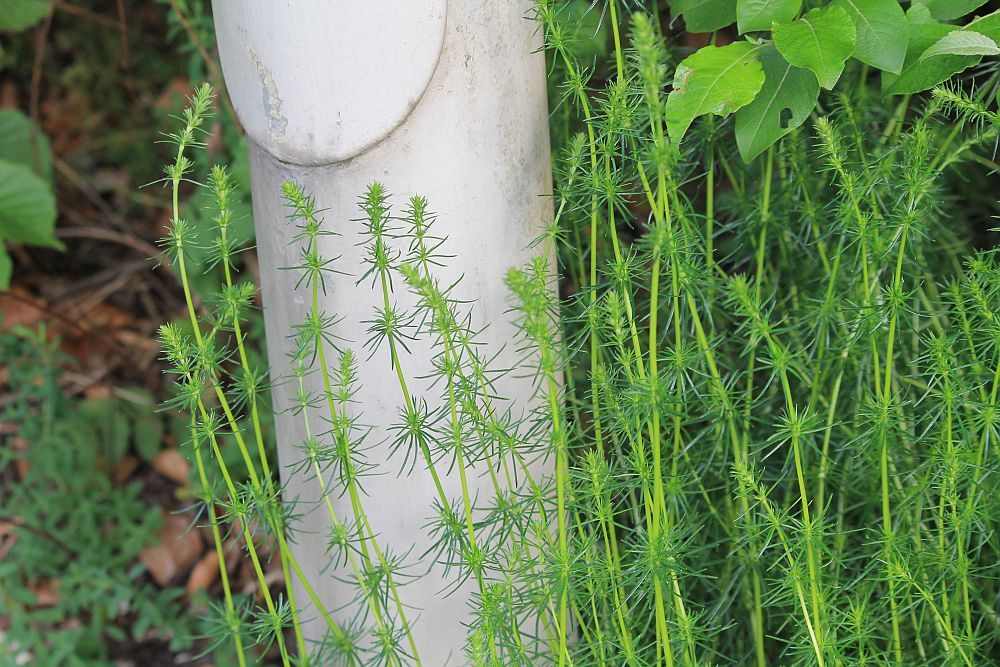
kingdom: Plantae
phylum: Tracheophyta
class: Magnoliopsida
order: Gentianales
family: Rubiaceae
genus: Galium
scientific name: Galium verum
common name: Lady's bedstraw
